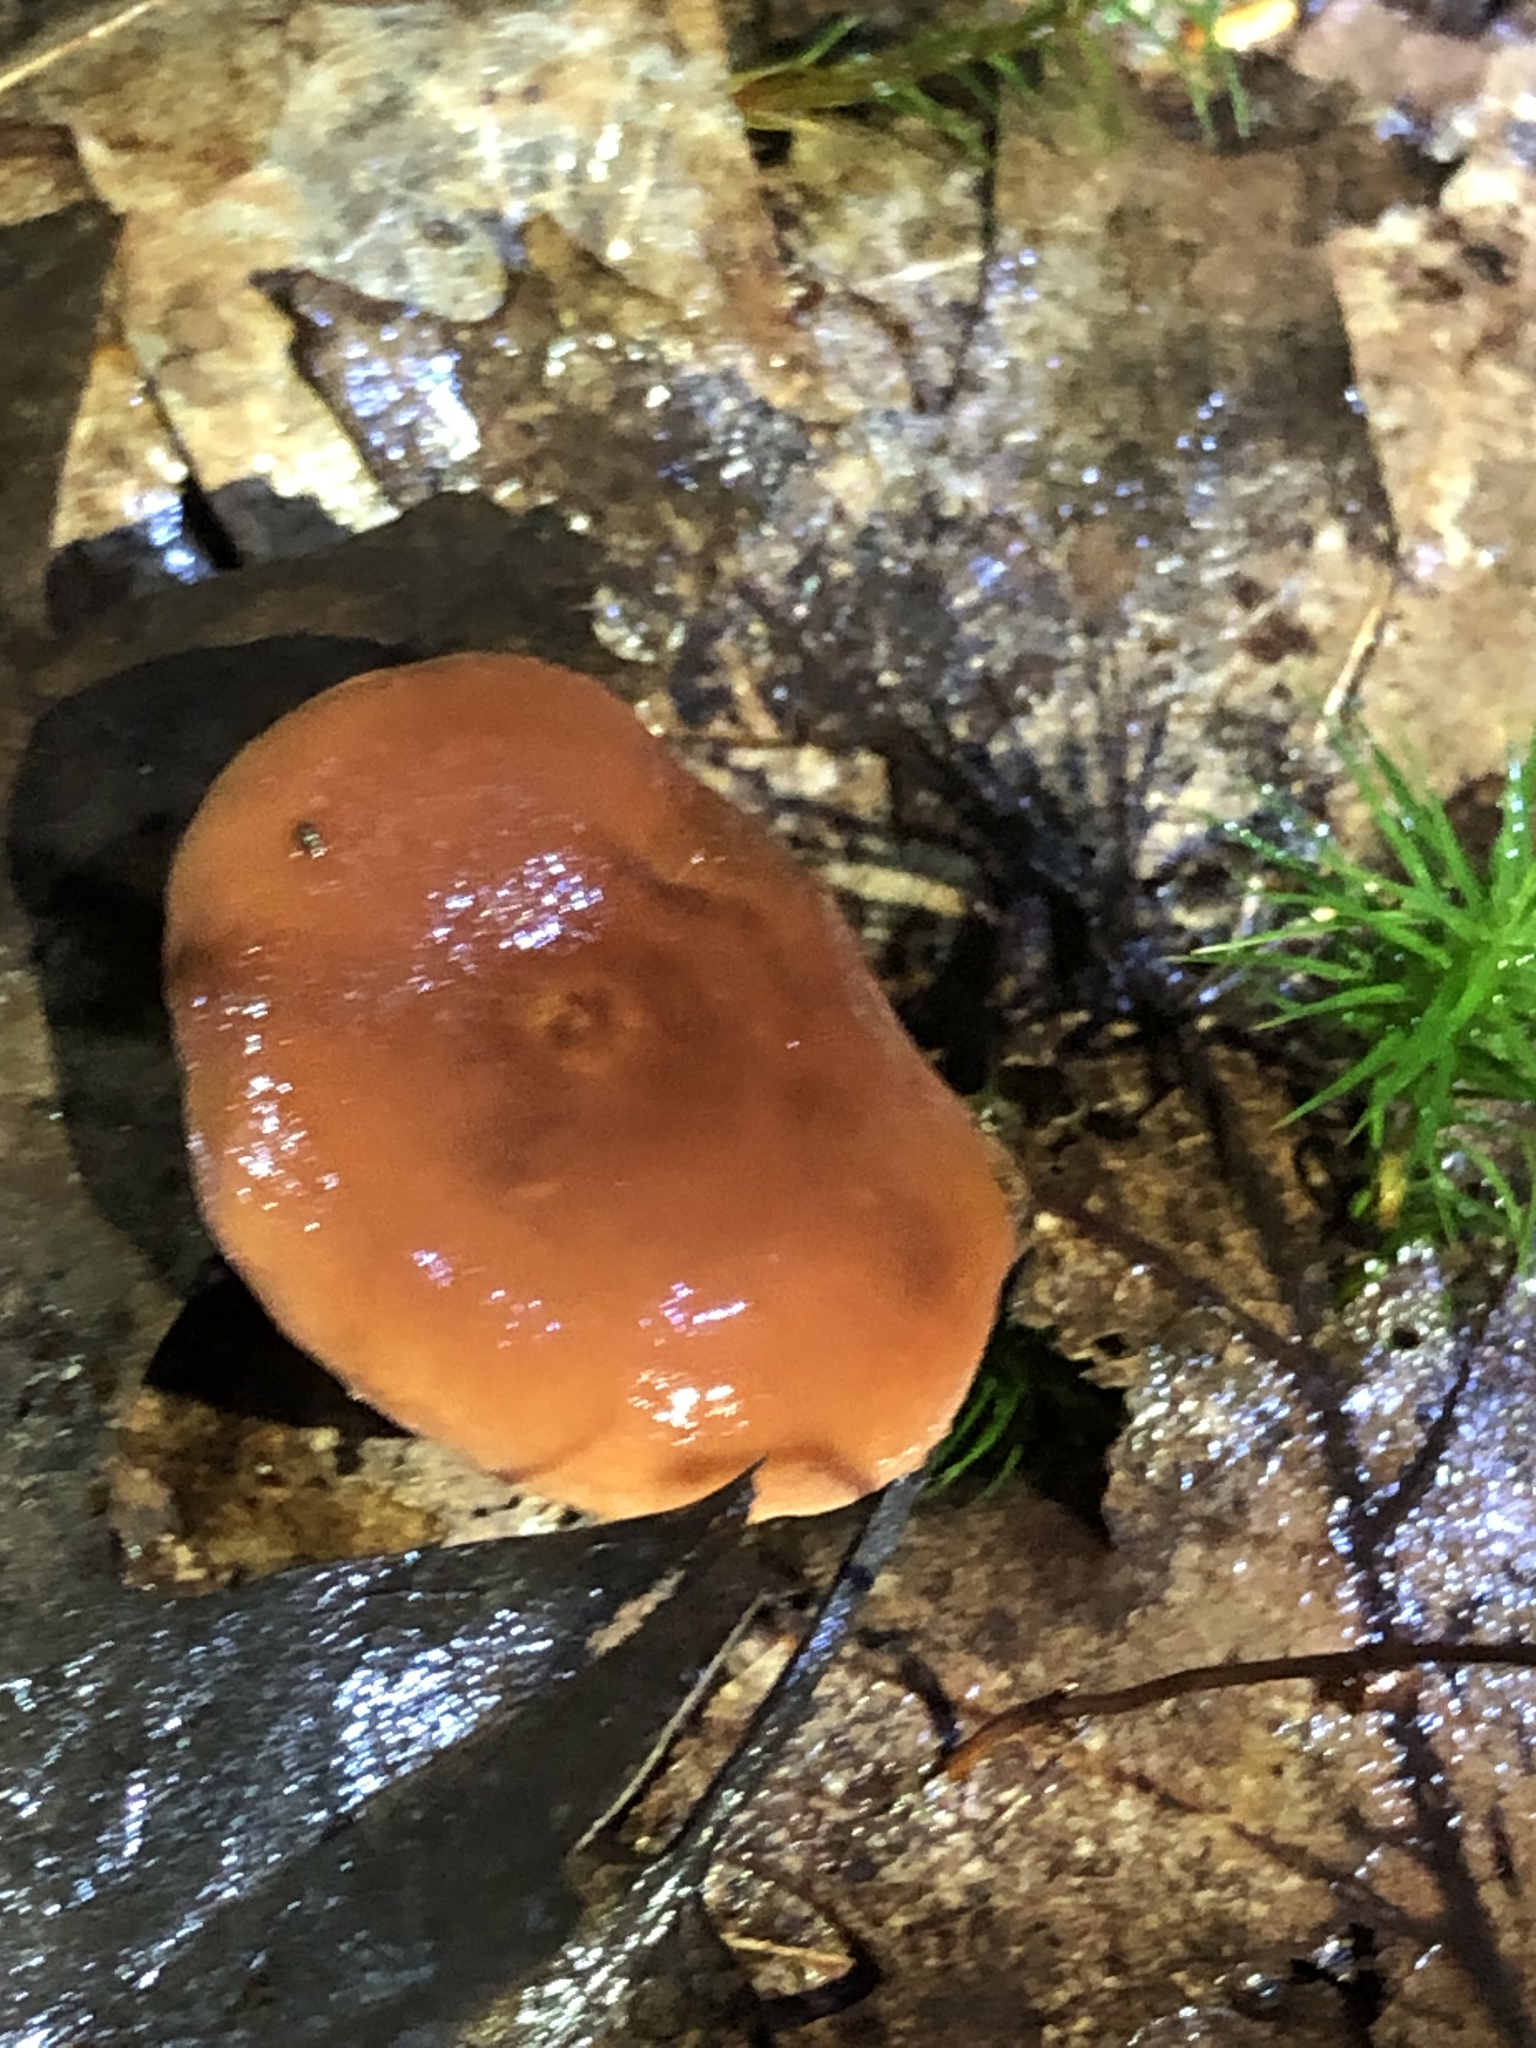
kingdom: Fungi
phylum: Basidiomycota
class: Agaricomycetes
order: Russulales
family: Russulaceae
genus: Lactarius
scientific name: Lactarius
